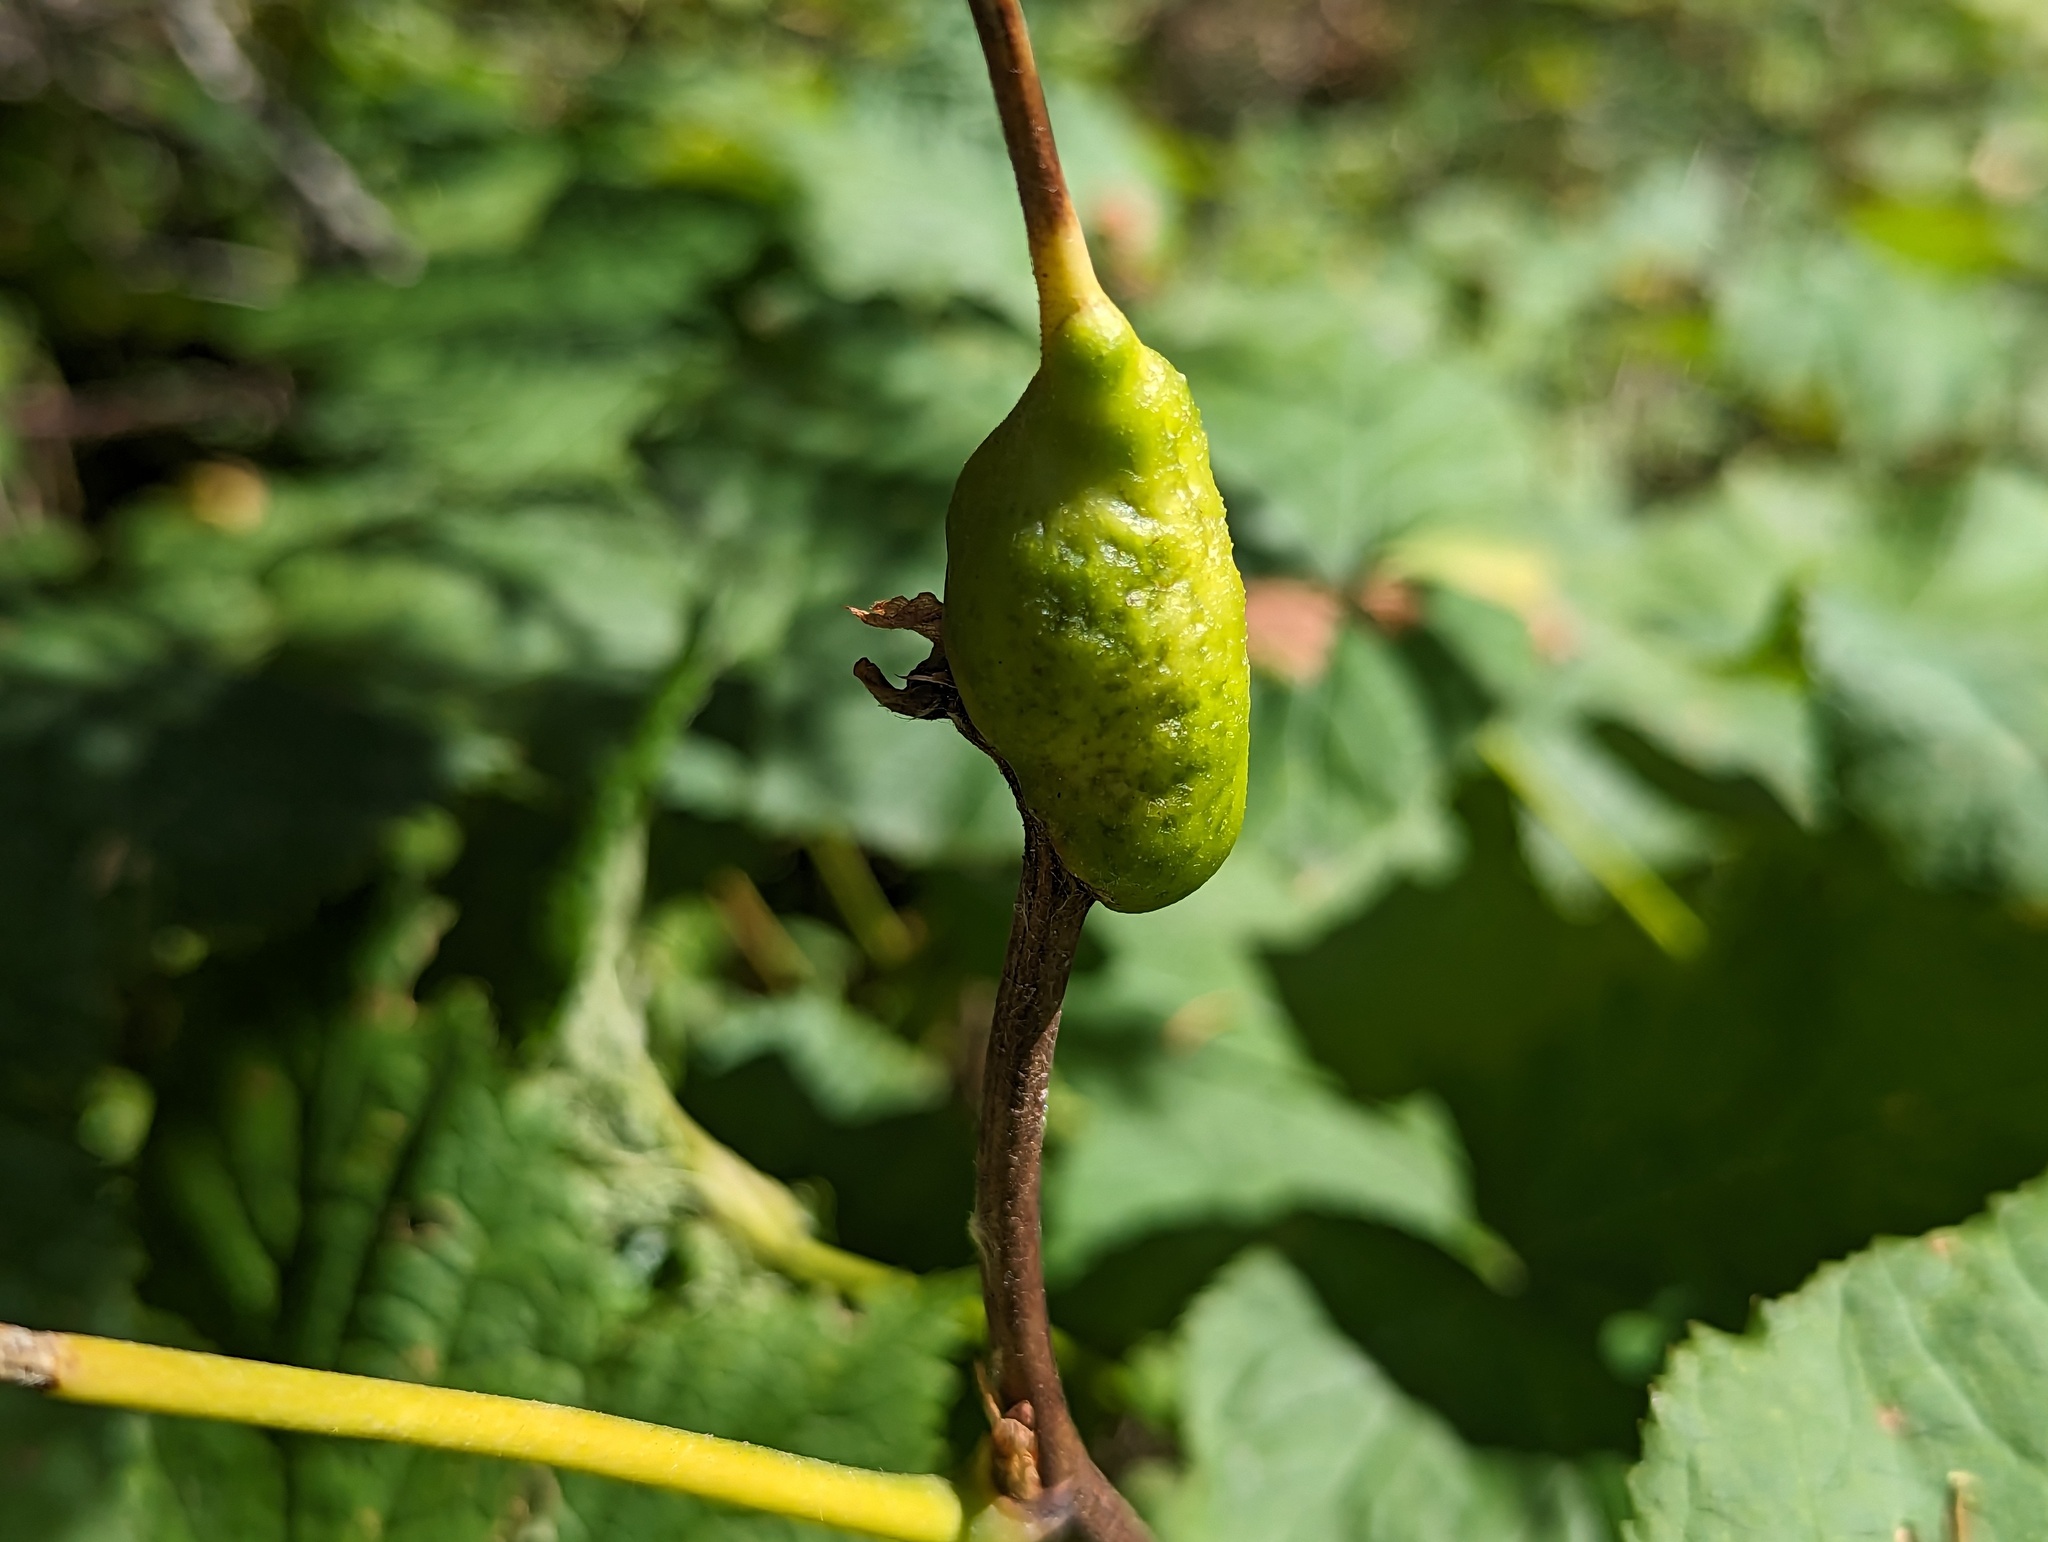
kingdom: Animalia
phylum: Arthropoda
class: Insecta
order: Hymenoptera
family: Cynipidae
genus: Diastrophus
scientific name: Diastrophus
